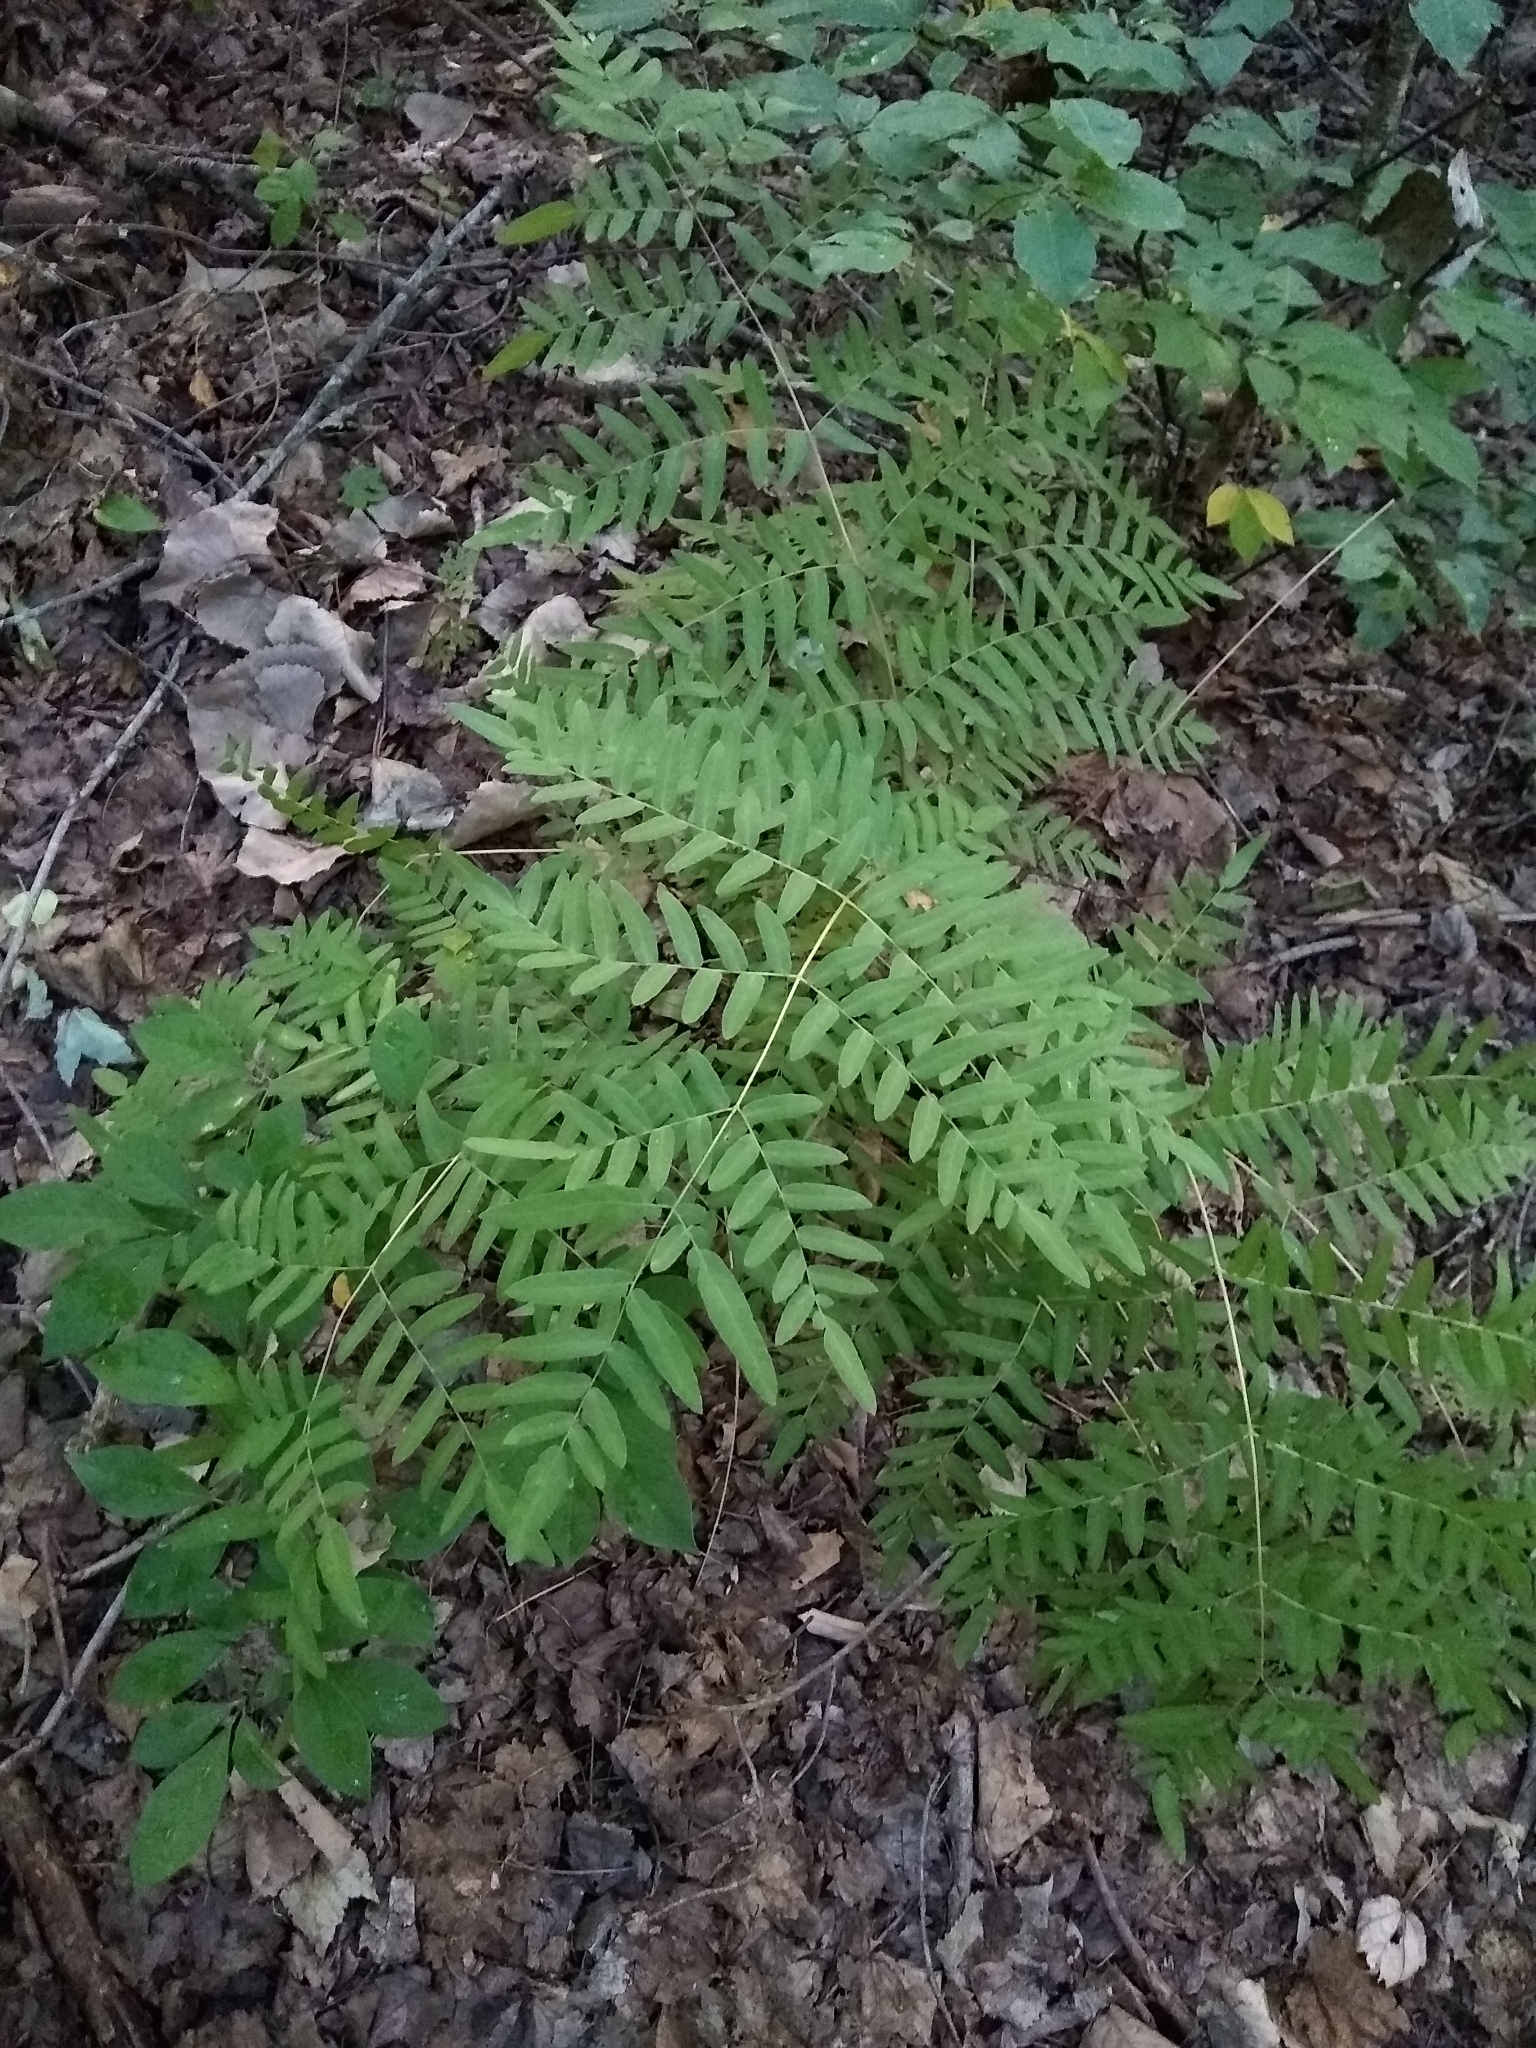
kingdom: Plantae
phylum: Tracheophyta
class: Polypodiopsida
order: Osmundales
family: Osmundaceae
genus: Osmunda
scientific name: Osmunda spectabilis
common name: American royal fern
